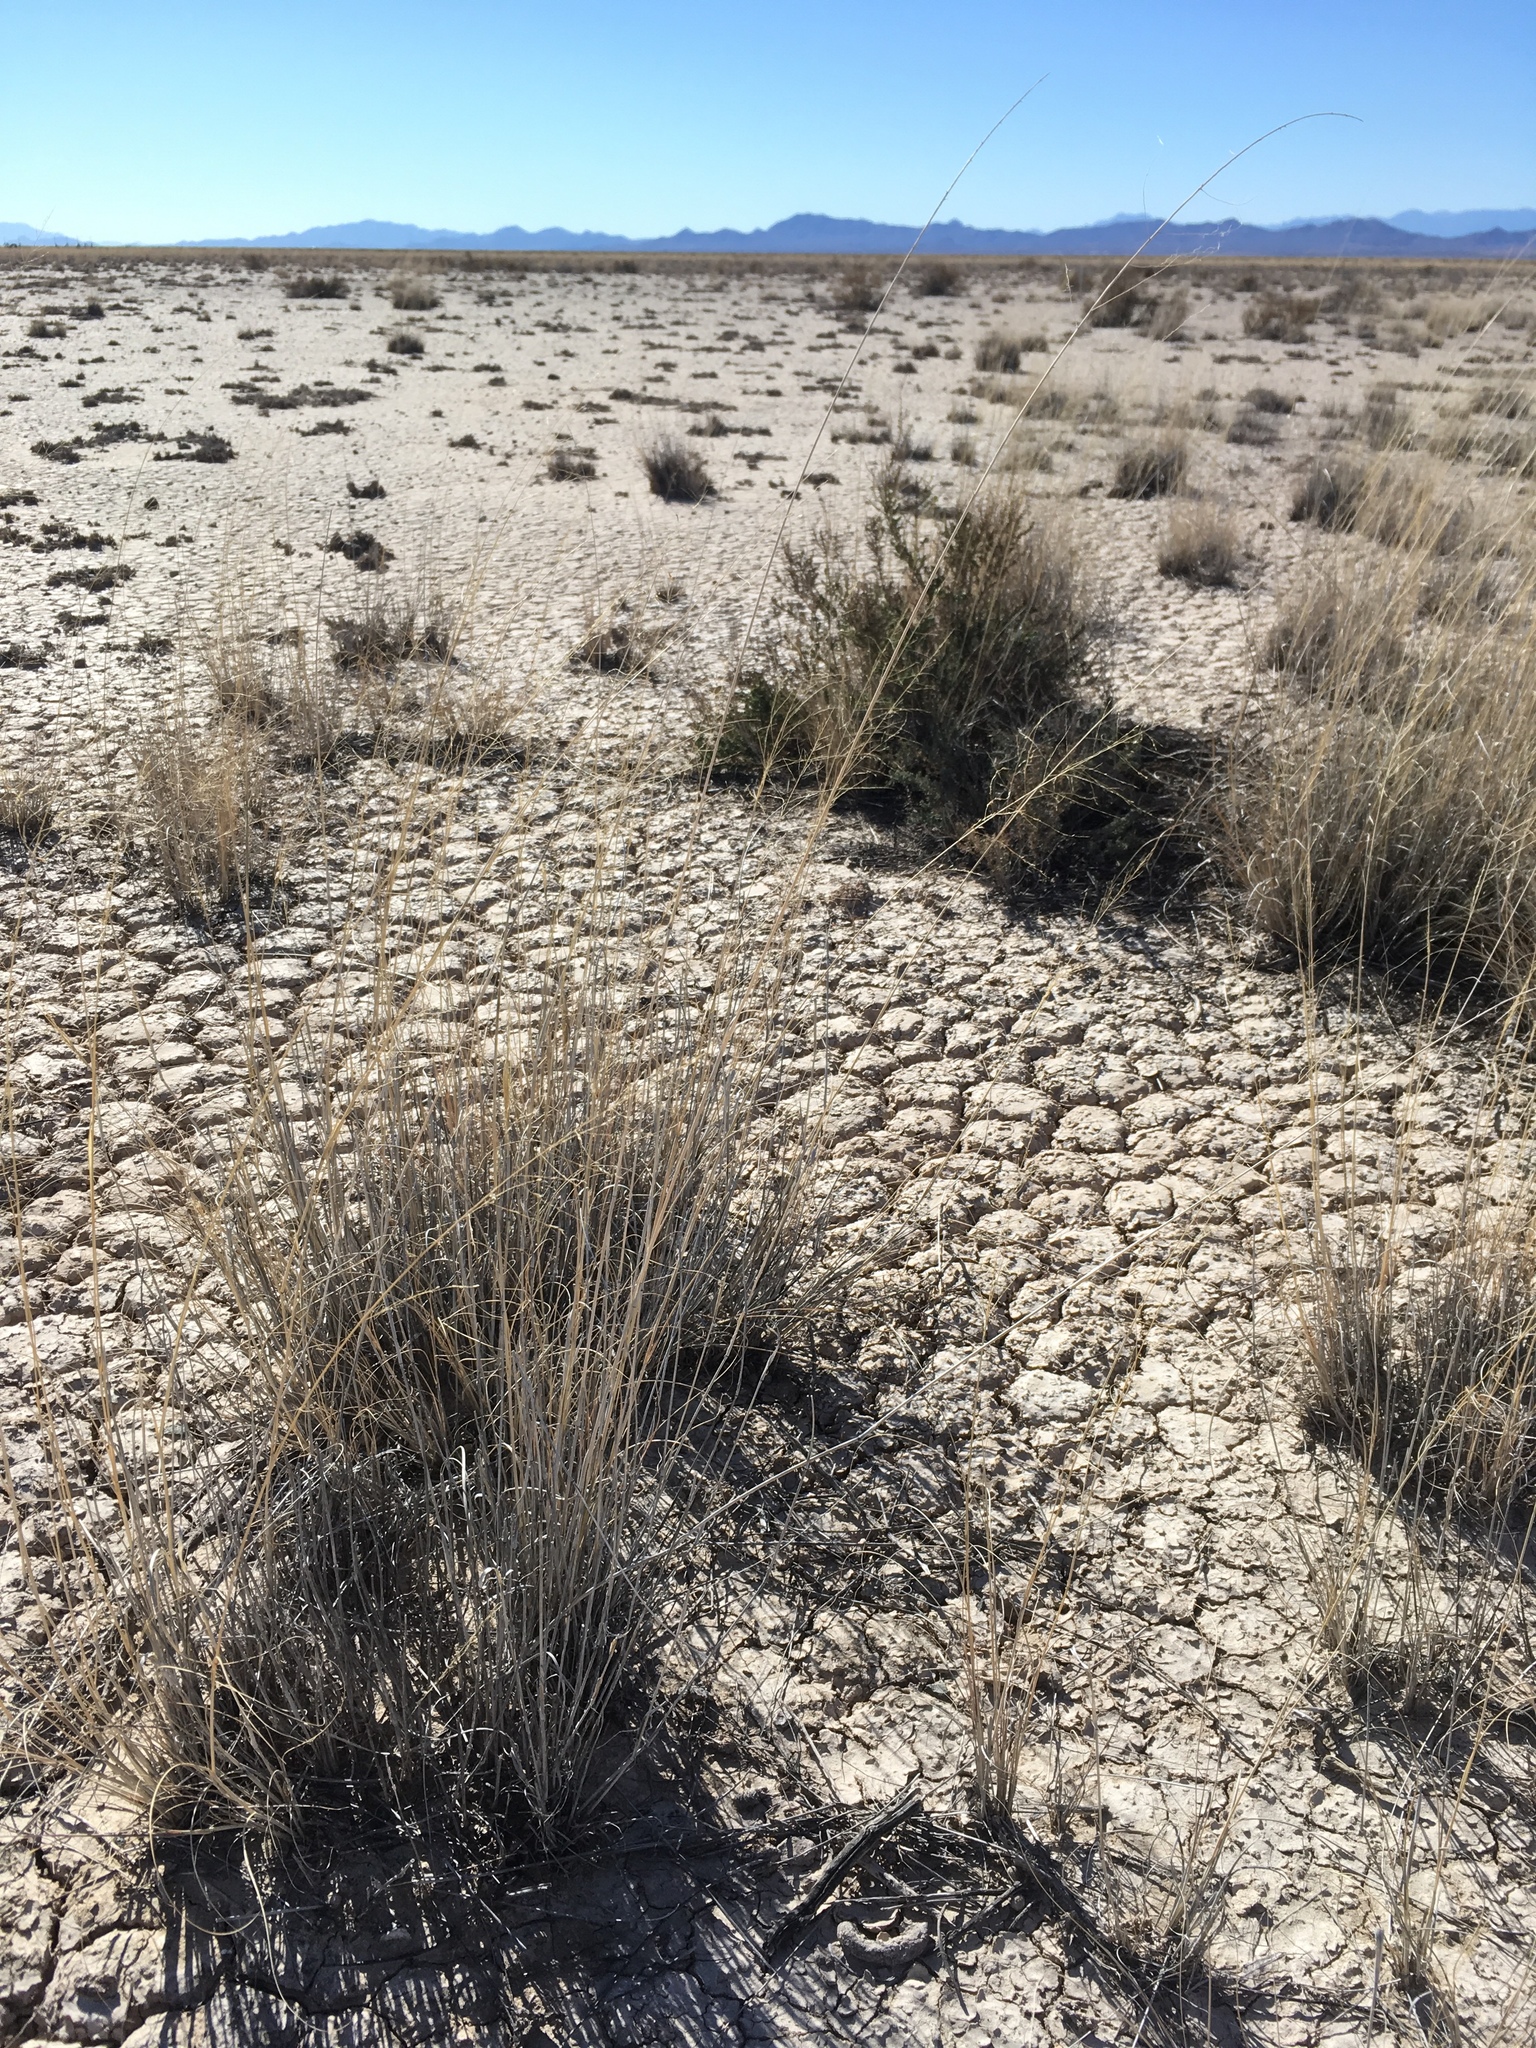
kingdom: Plantae
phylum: Tracheophyta
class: Liliopsida
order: Poales
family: Poaceae
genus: Sporobolus
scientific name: Sporobolus airoides
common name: Alkali sacaton
